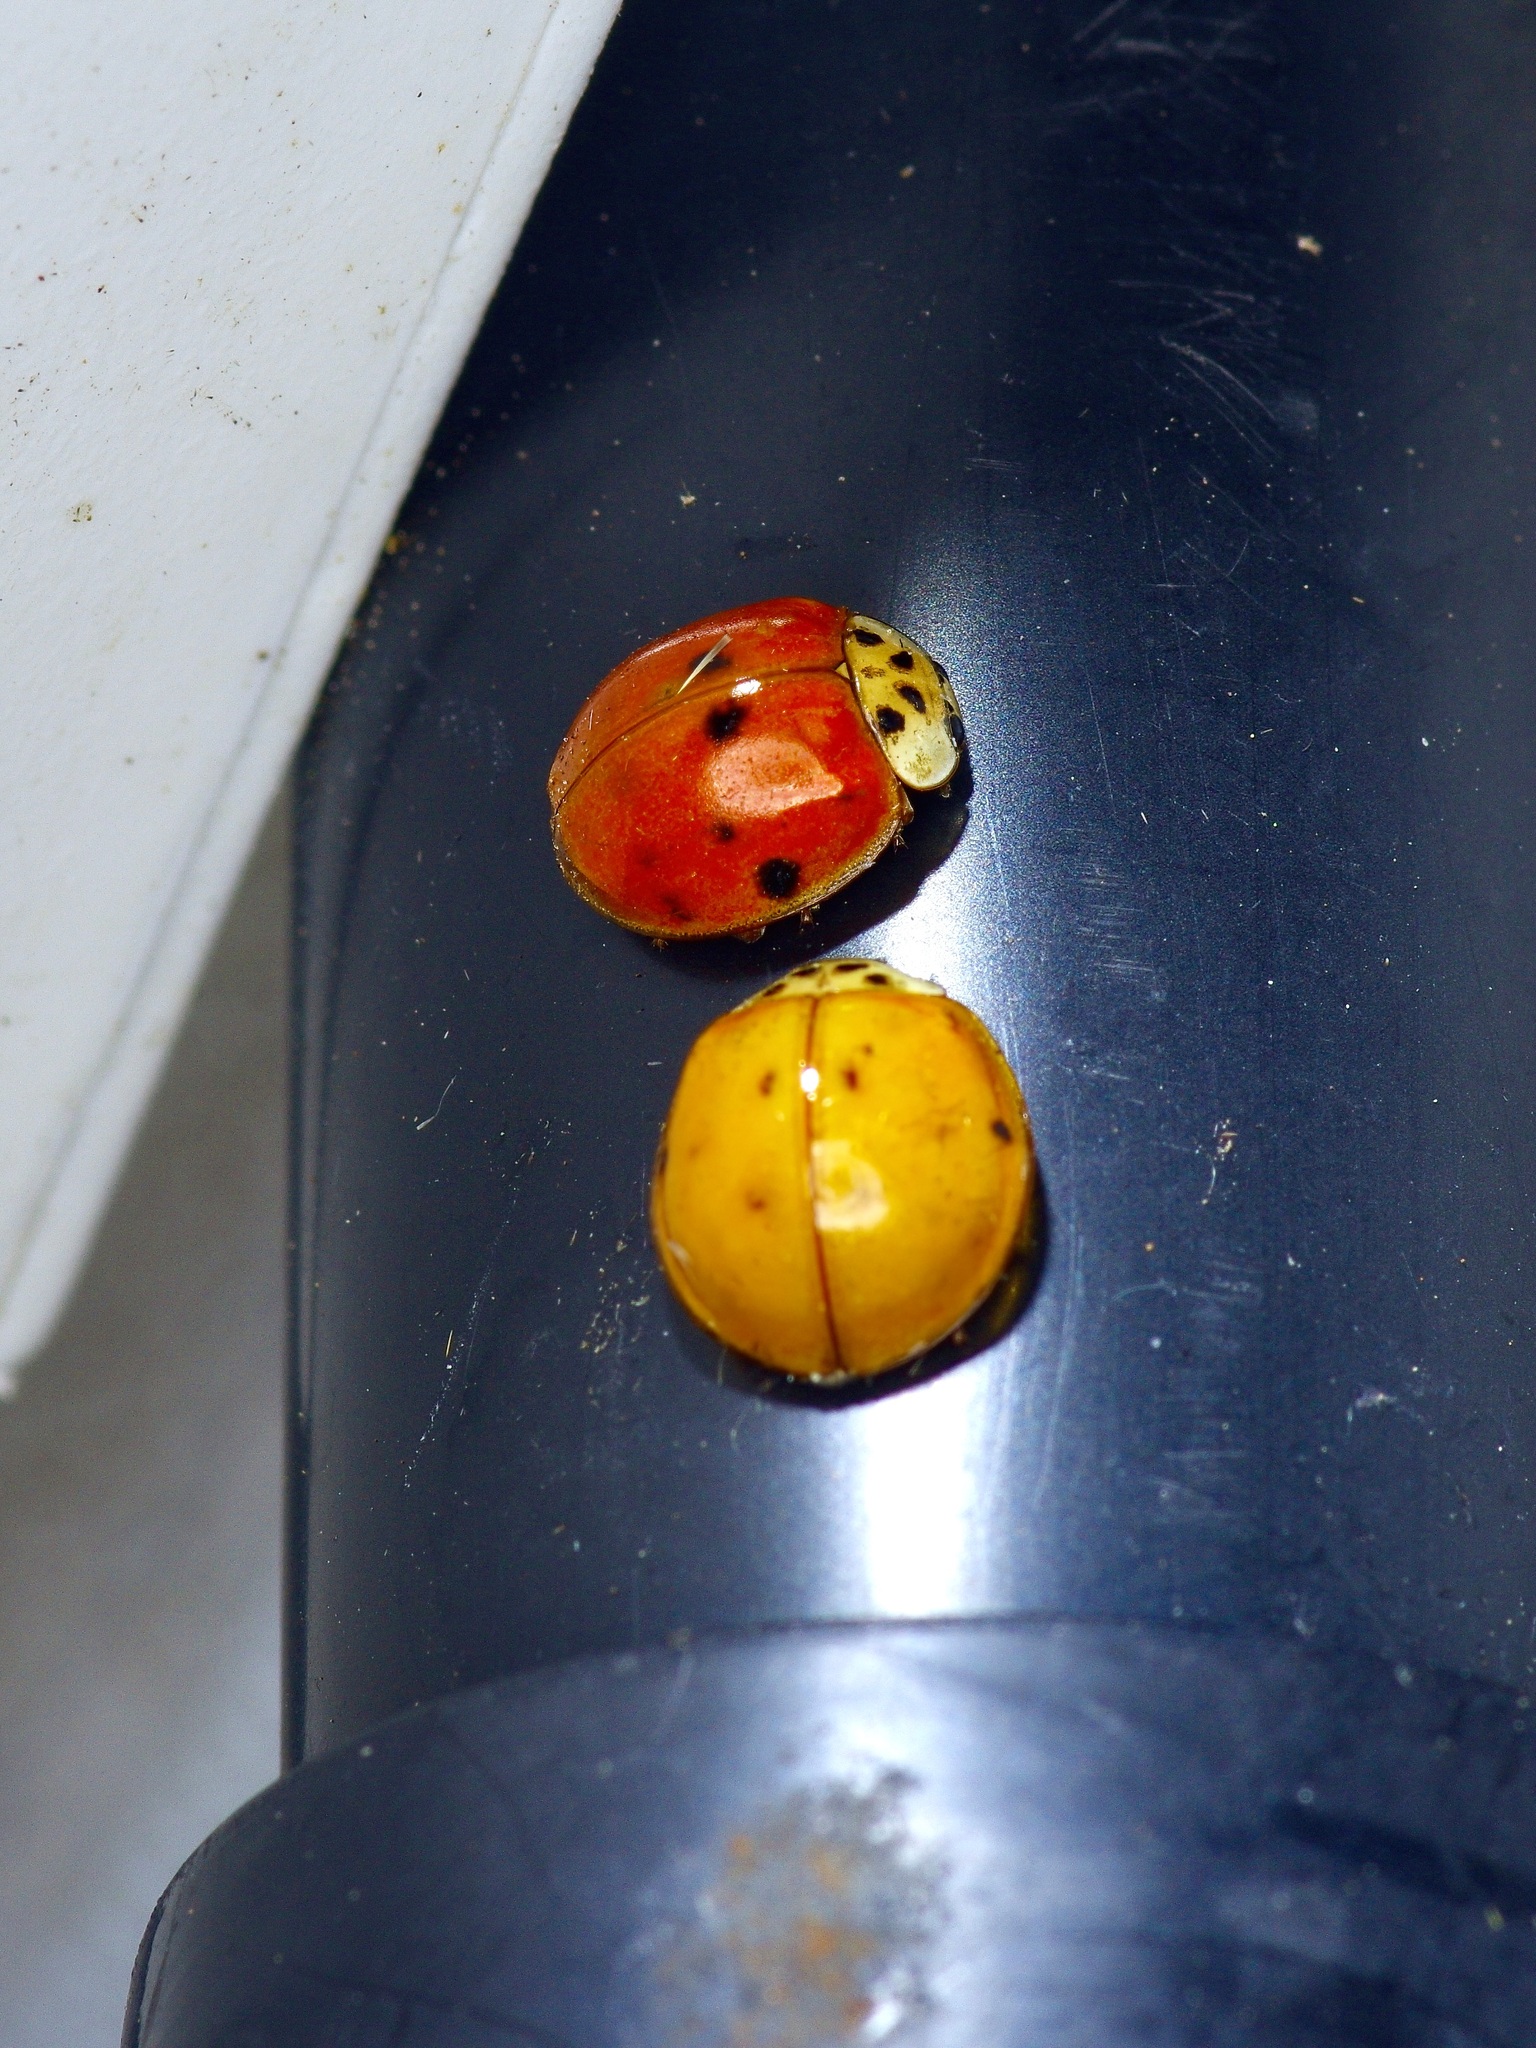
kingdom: Animalia
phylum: Arthropoda
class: Insecta
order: Coleoptera
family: Coccinellidae
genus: Harmonia
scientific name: Harmonia axyridis
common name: Harlequin ladybird
